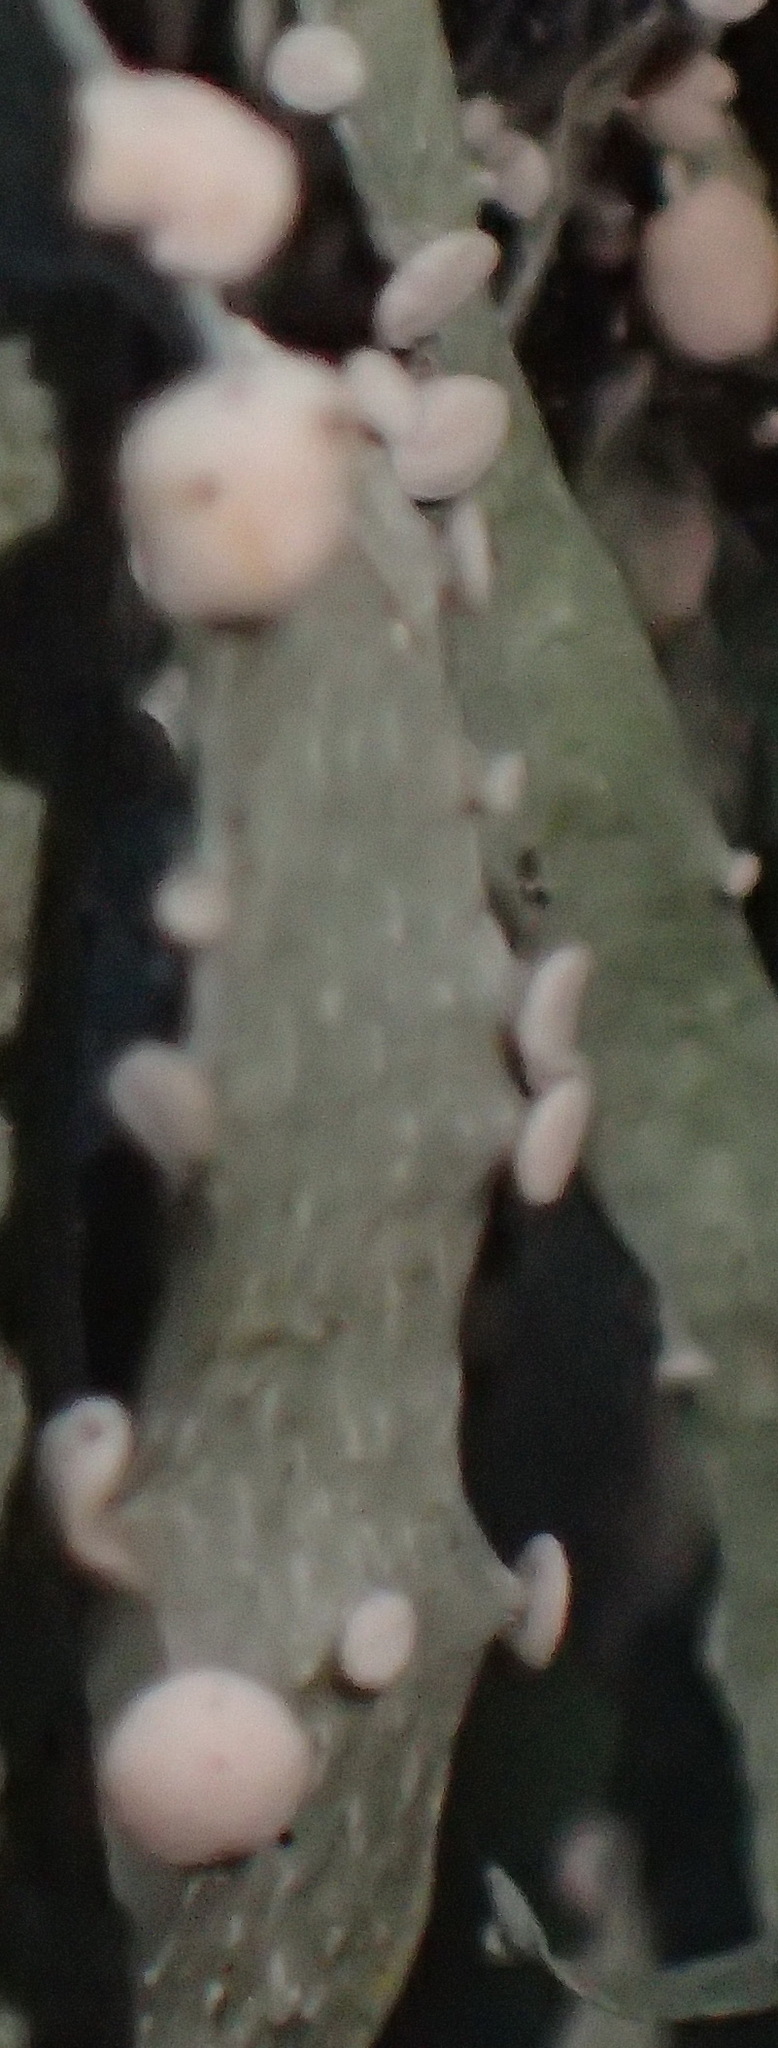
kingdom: Fungi
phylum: Ascomycota
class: Lecanoromycetes
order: Lecanorales
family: Ramalinaceae
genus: Ramalina
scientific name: Ramalina celastri
